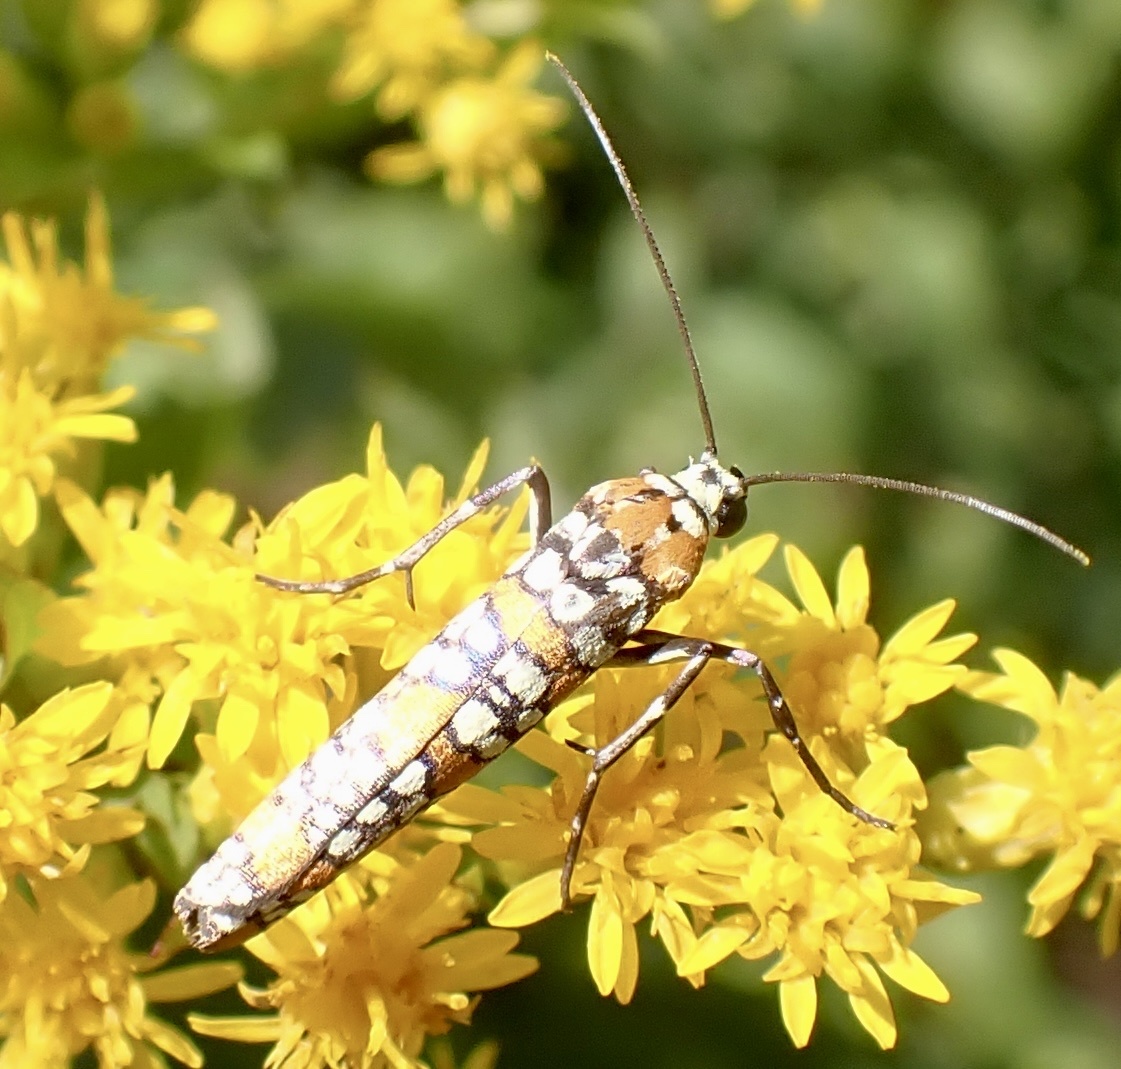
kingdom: Animalia
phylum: Arthropoda
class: Insecta
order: Lepidoptera
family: Attevidae
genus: Atteva
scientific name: Atteva punctella
